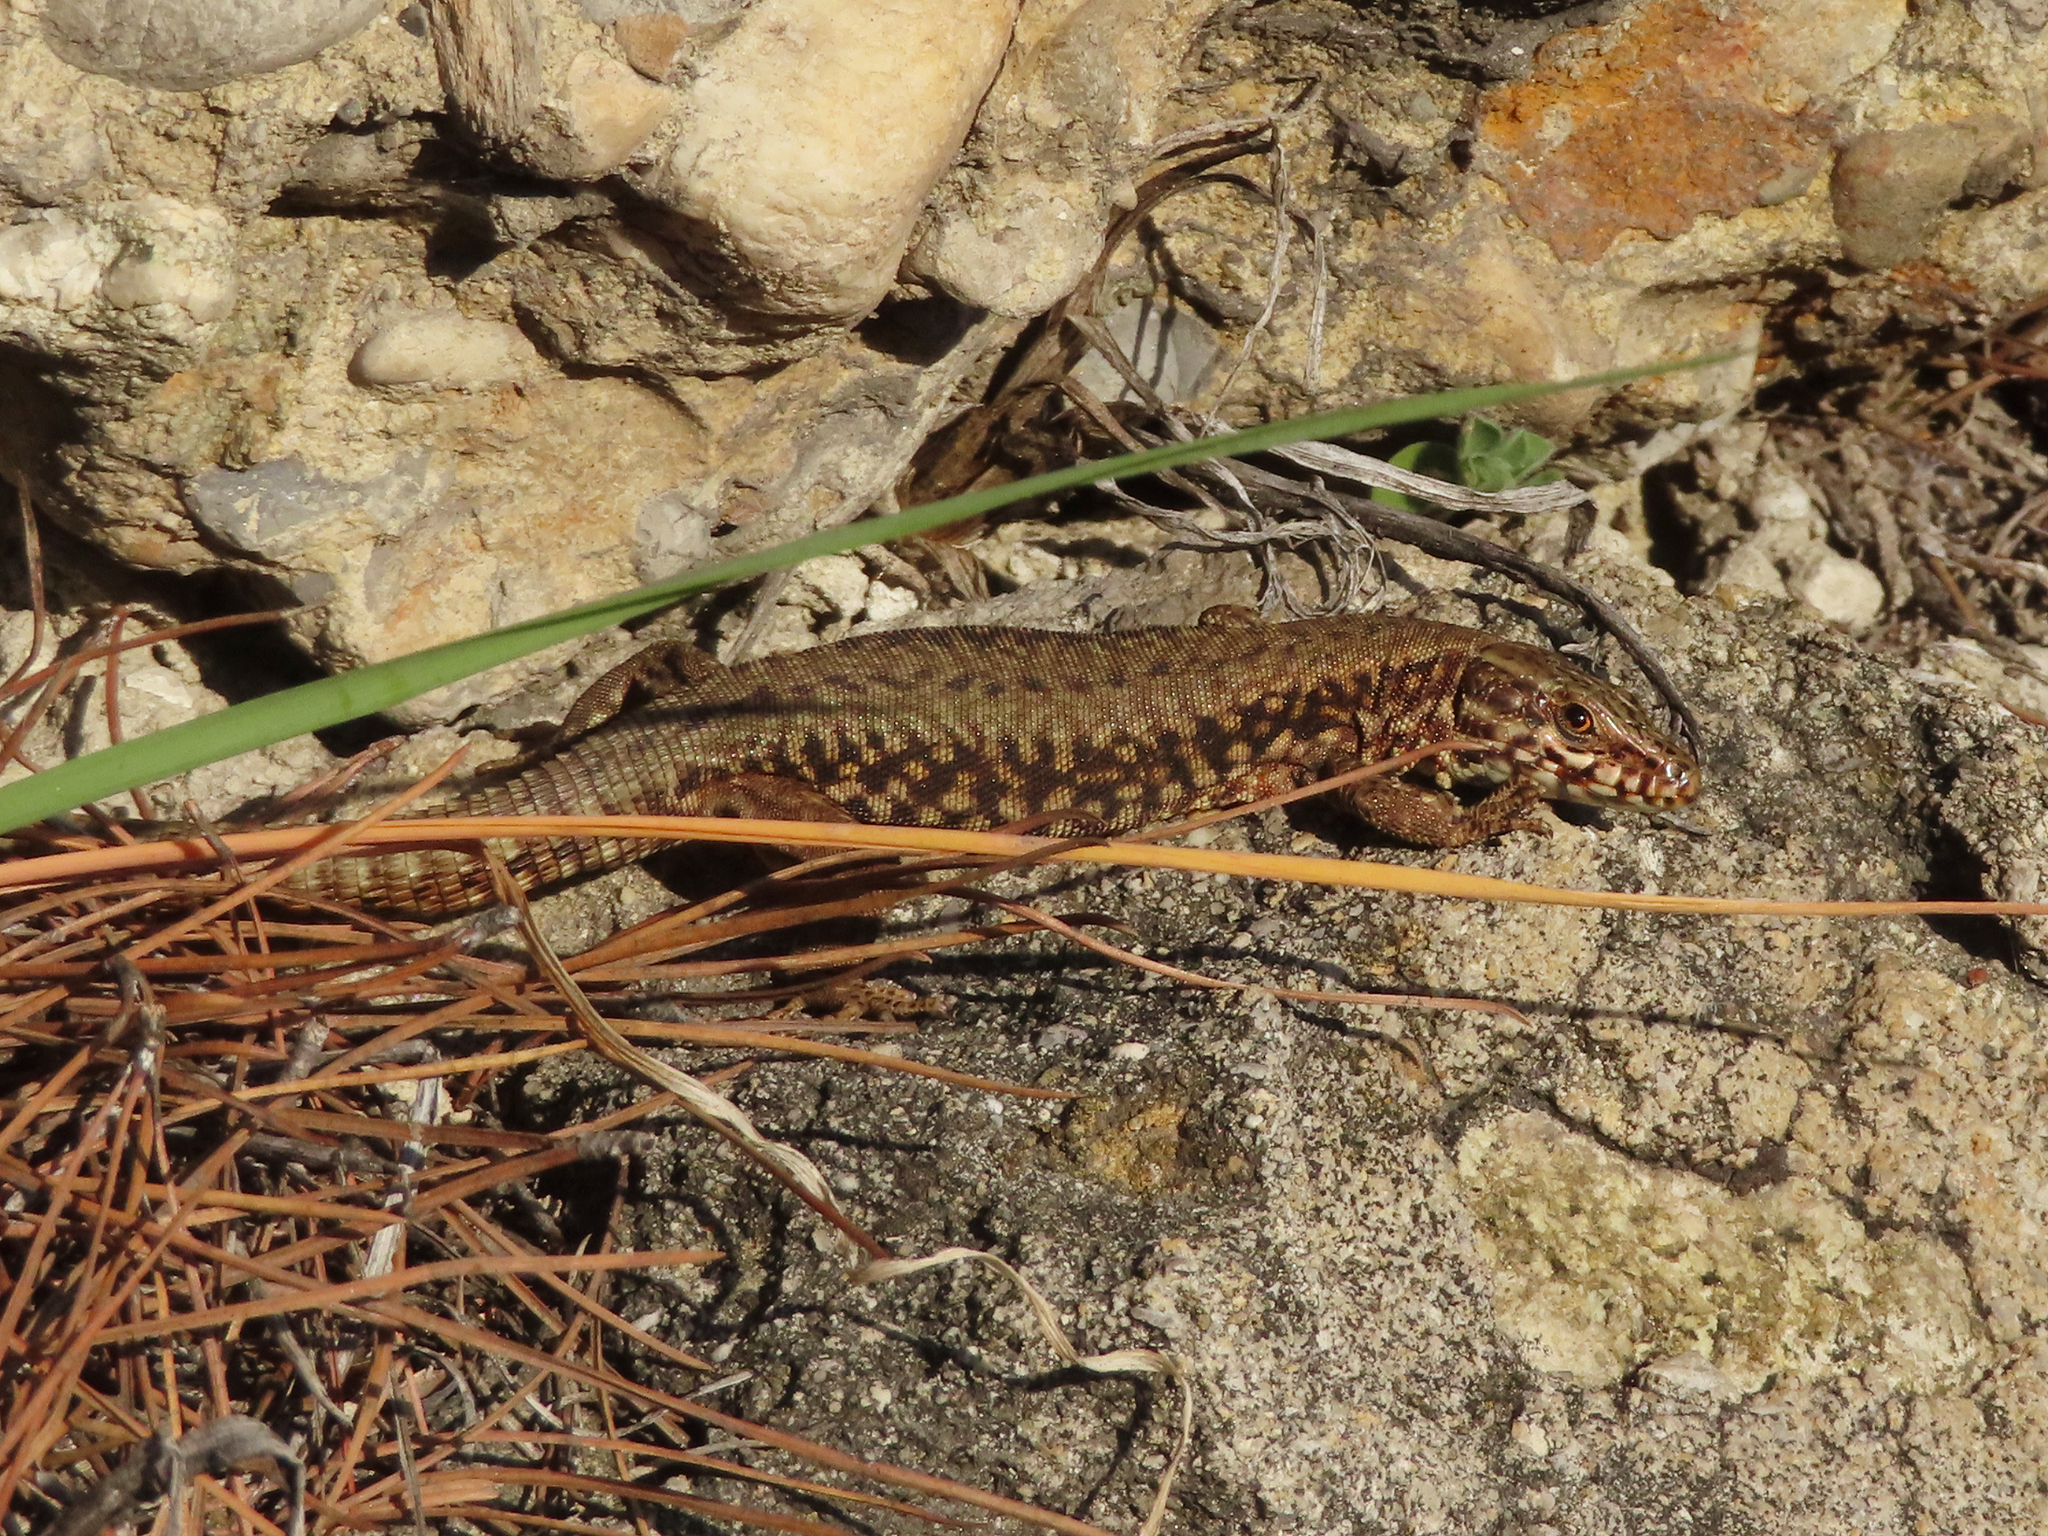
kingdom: Animalia
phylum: Chordata
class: Squamata
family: Lacertidae
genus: Podarcis
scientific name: Podarcis muralis
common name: Common wall lizard
